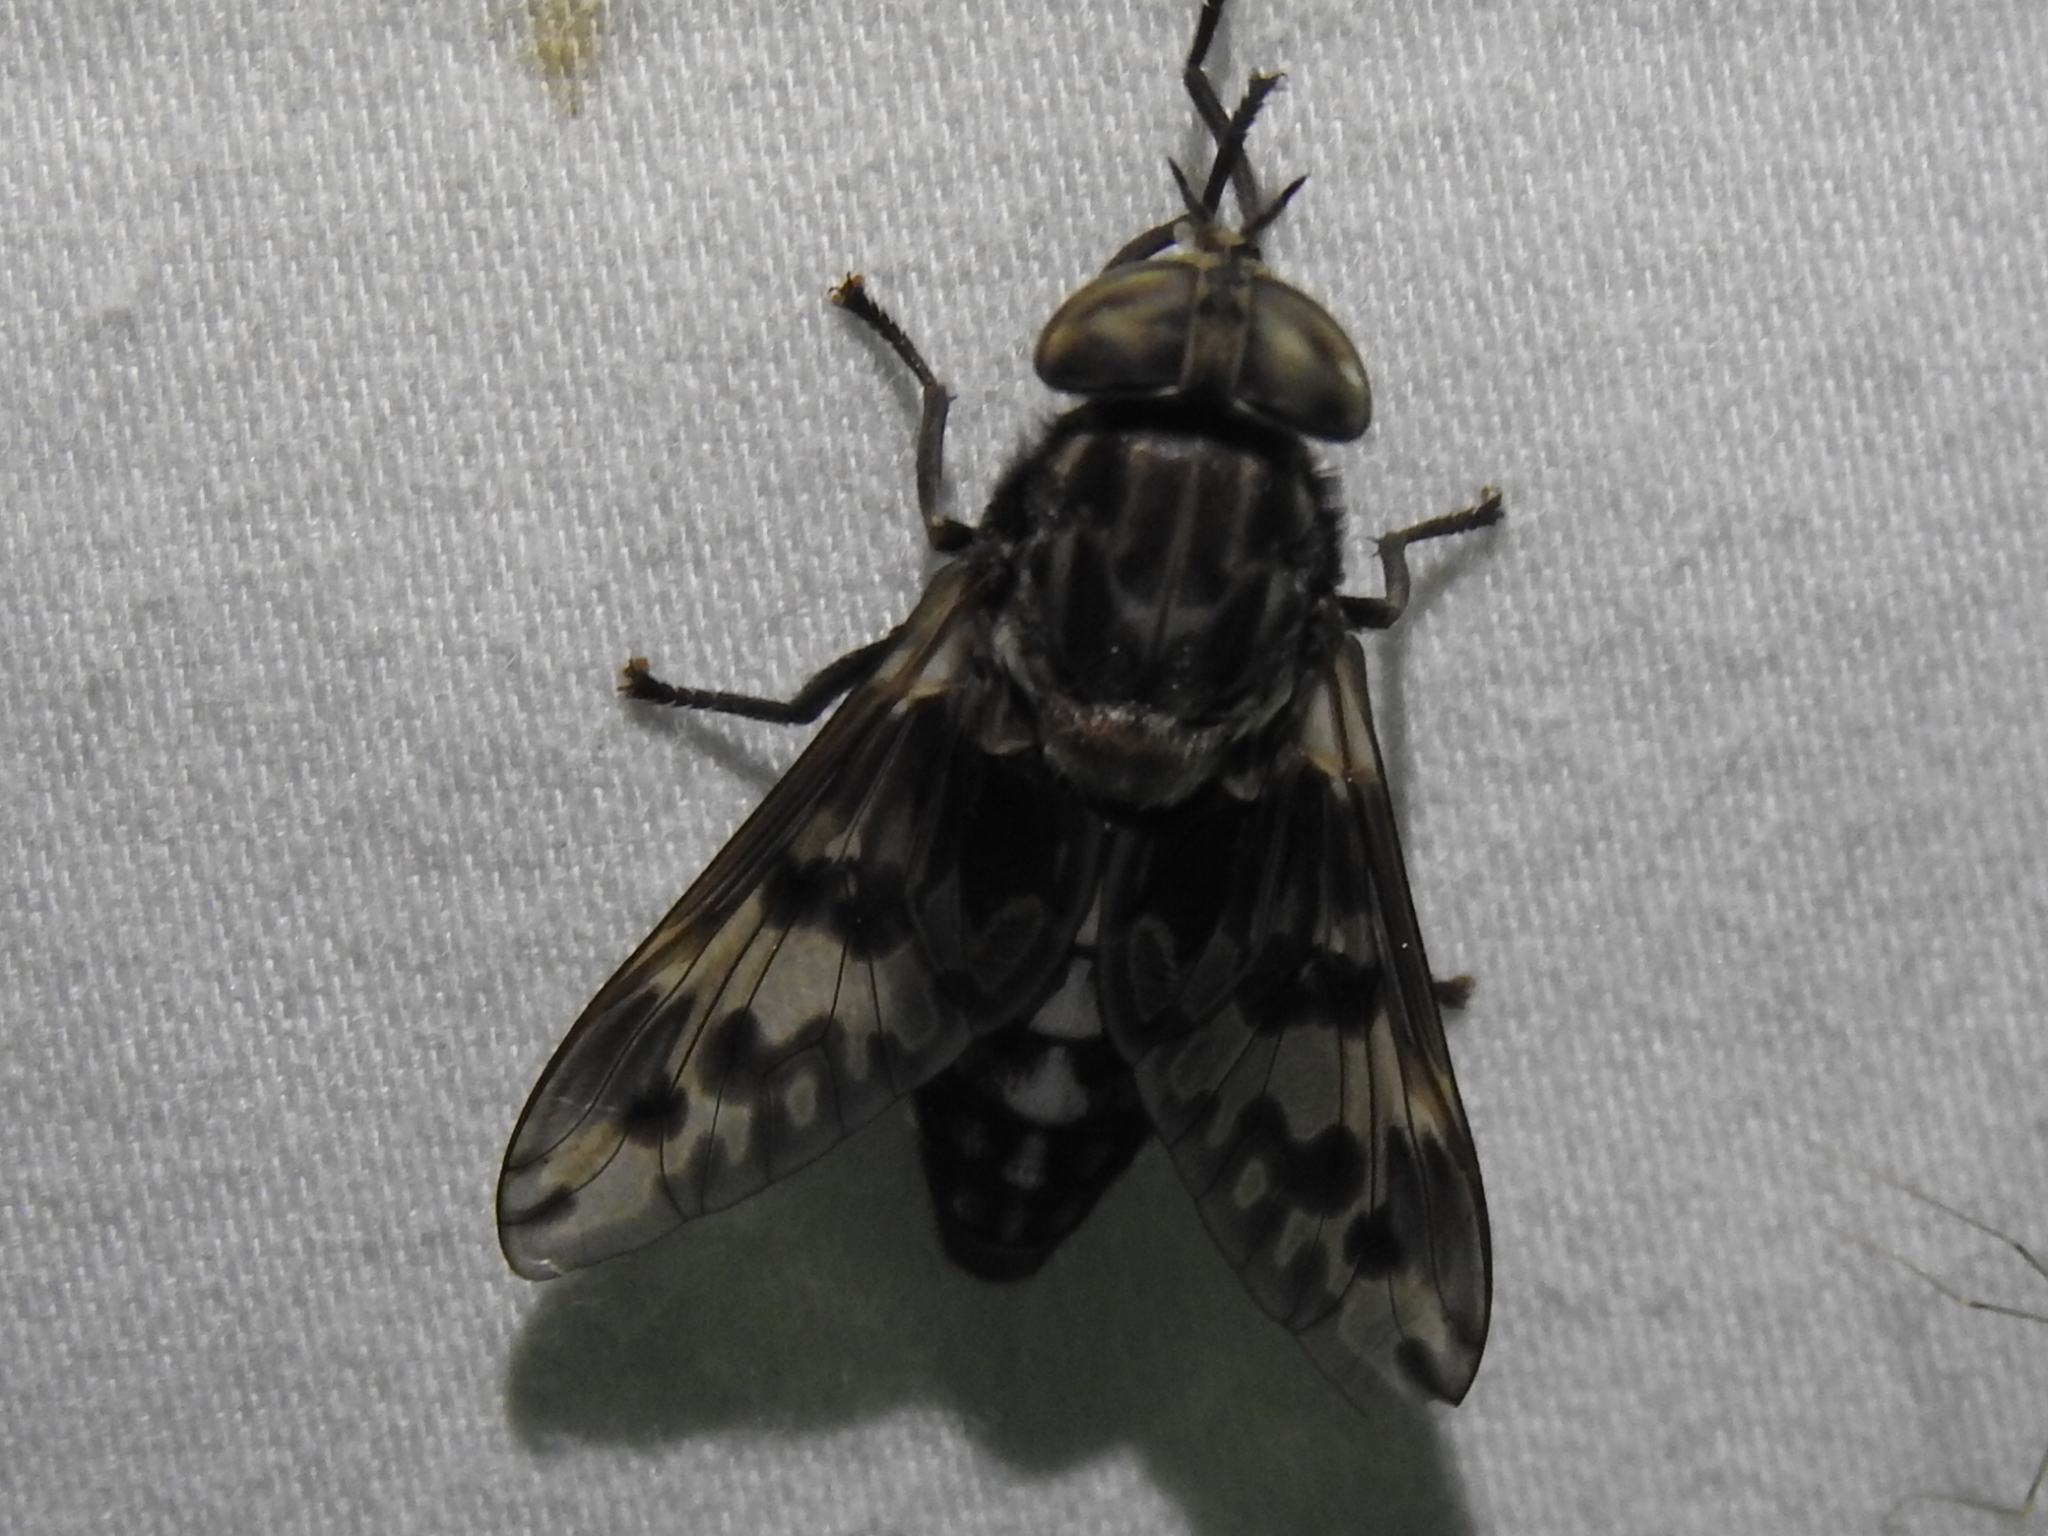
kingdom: Animalia
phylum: Arthropoda
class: Insecta
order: Diptera
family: Tabanidae
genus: Tabanus
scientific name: Tabanus venustus
